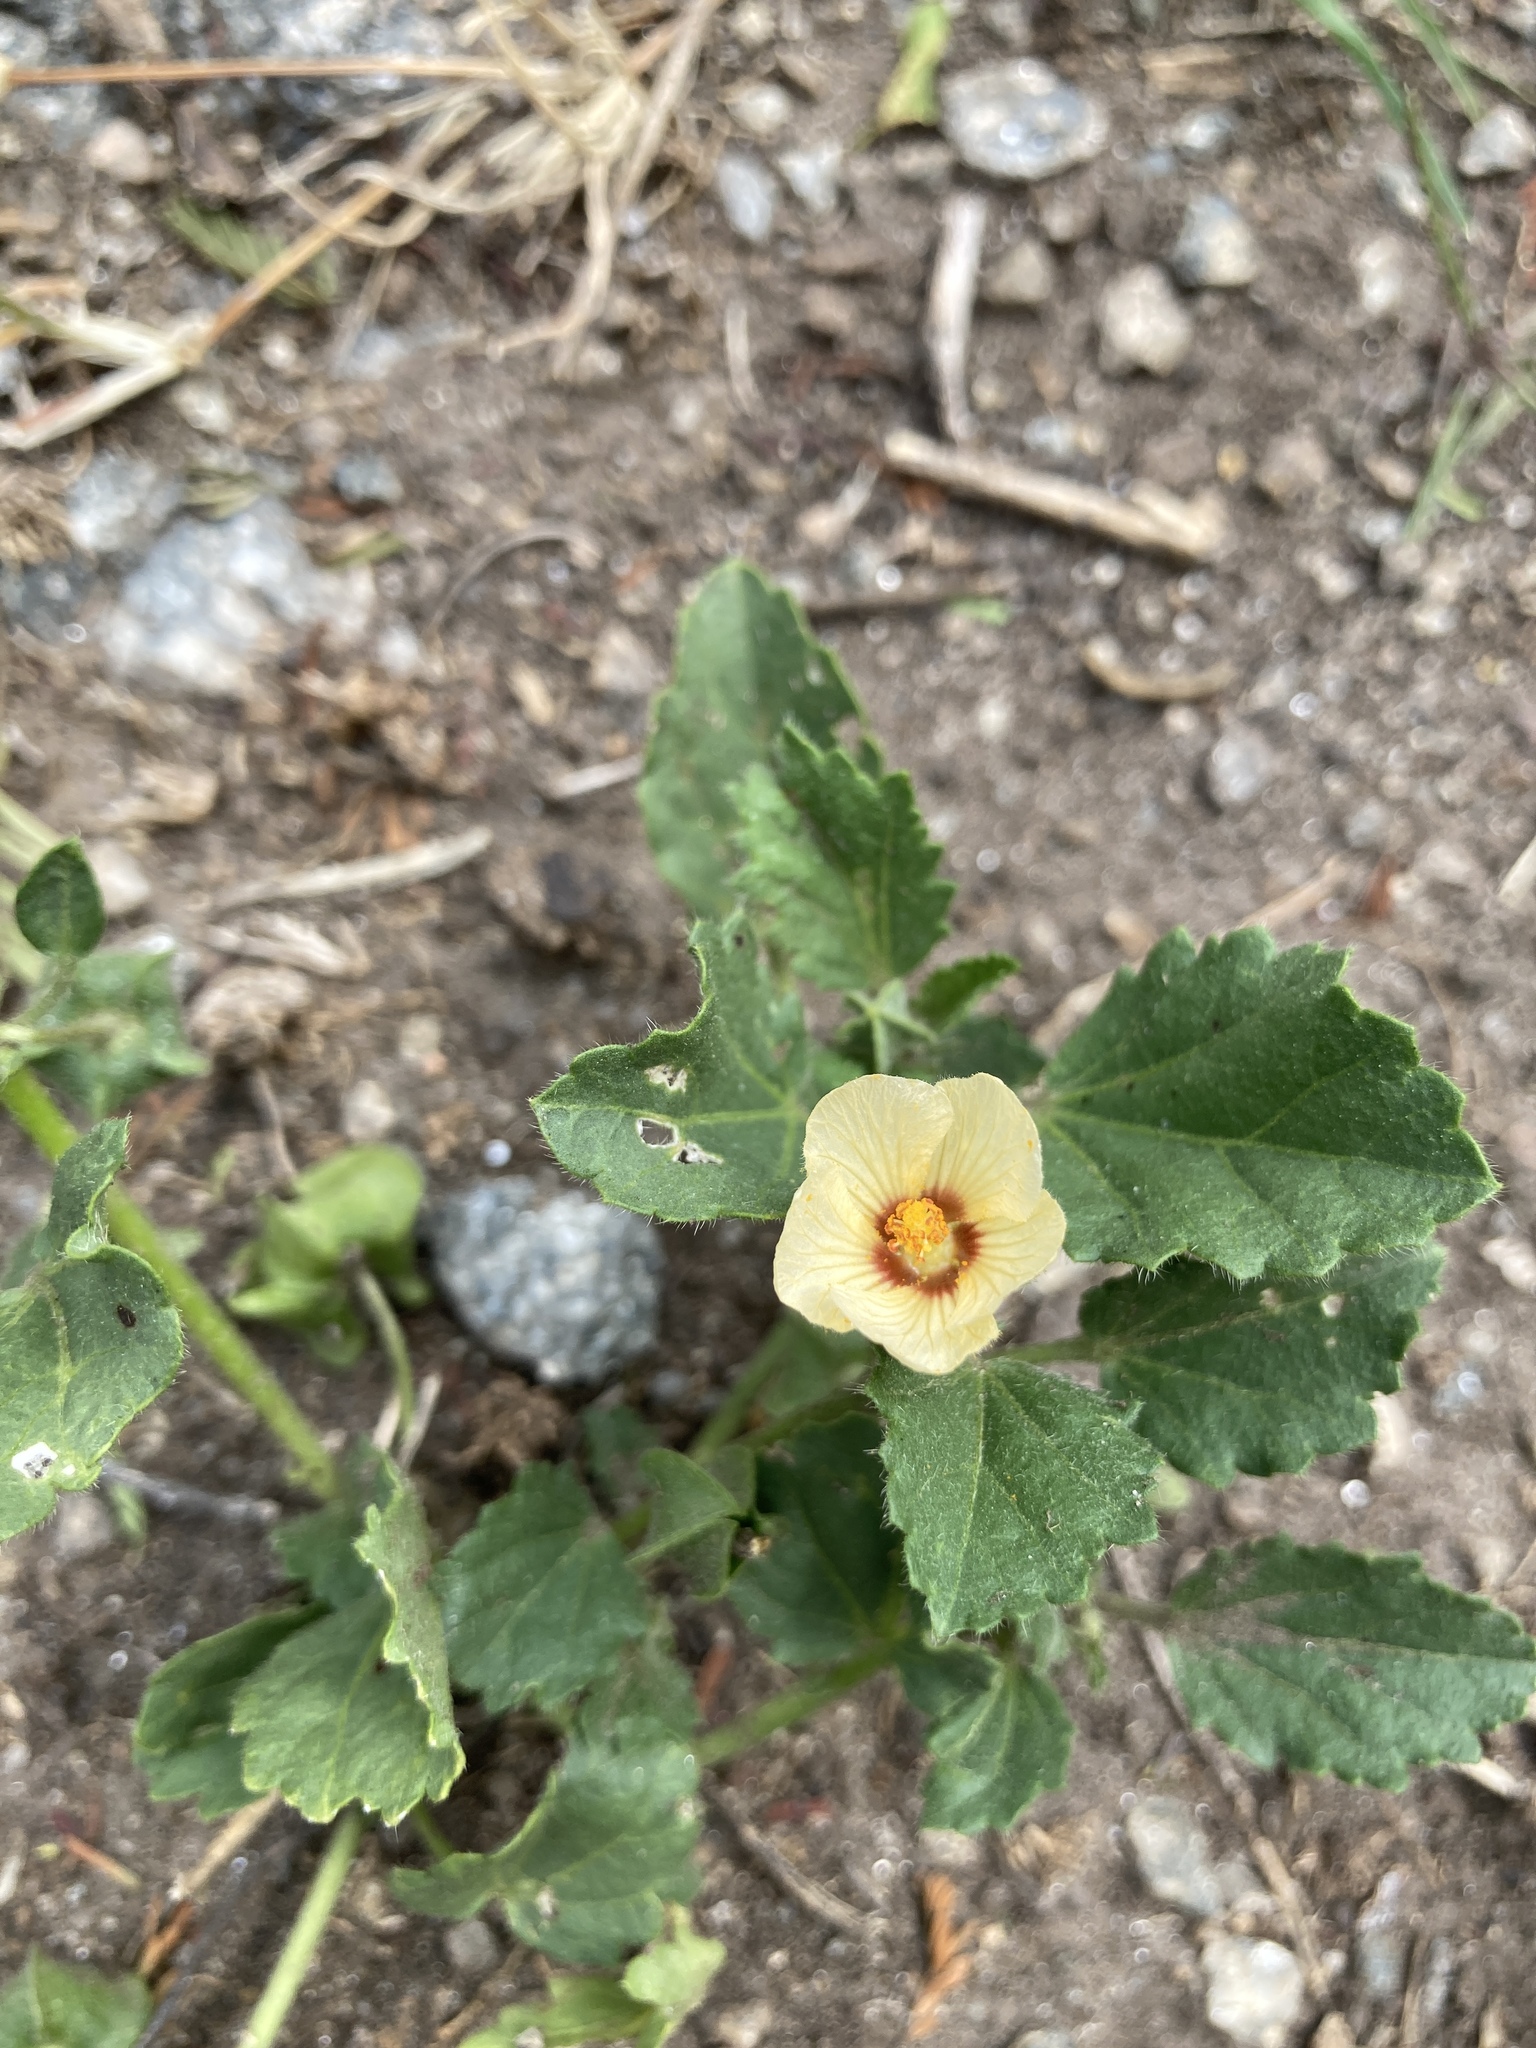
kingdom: Plantae
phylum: Tracheophyta
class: Magnoliopsida
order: Malvales
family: Malvaceae
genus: Rhynchosida
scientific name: Rhynchosida physocalyx
